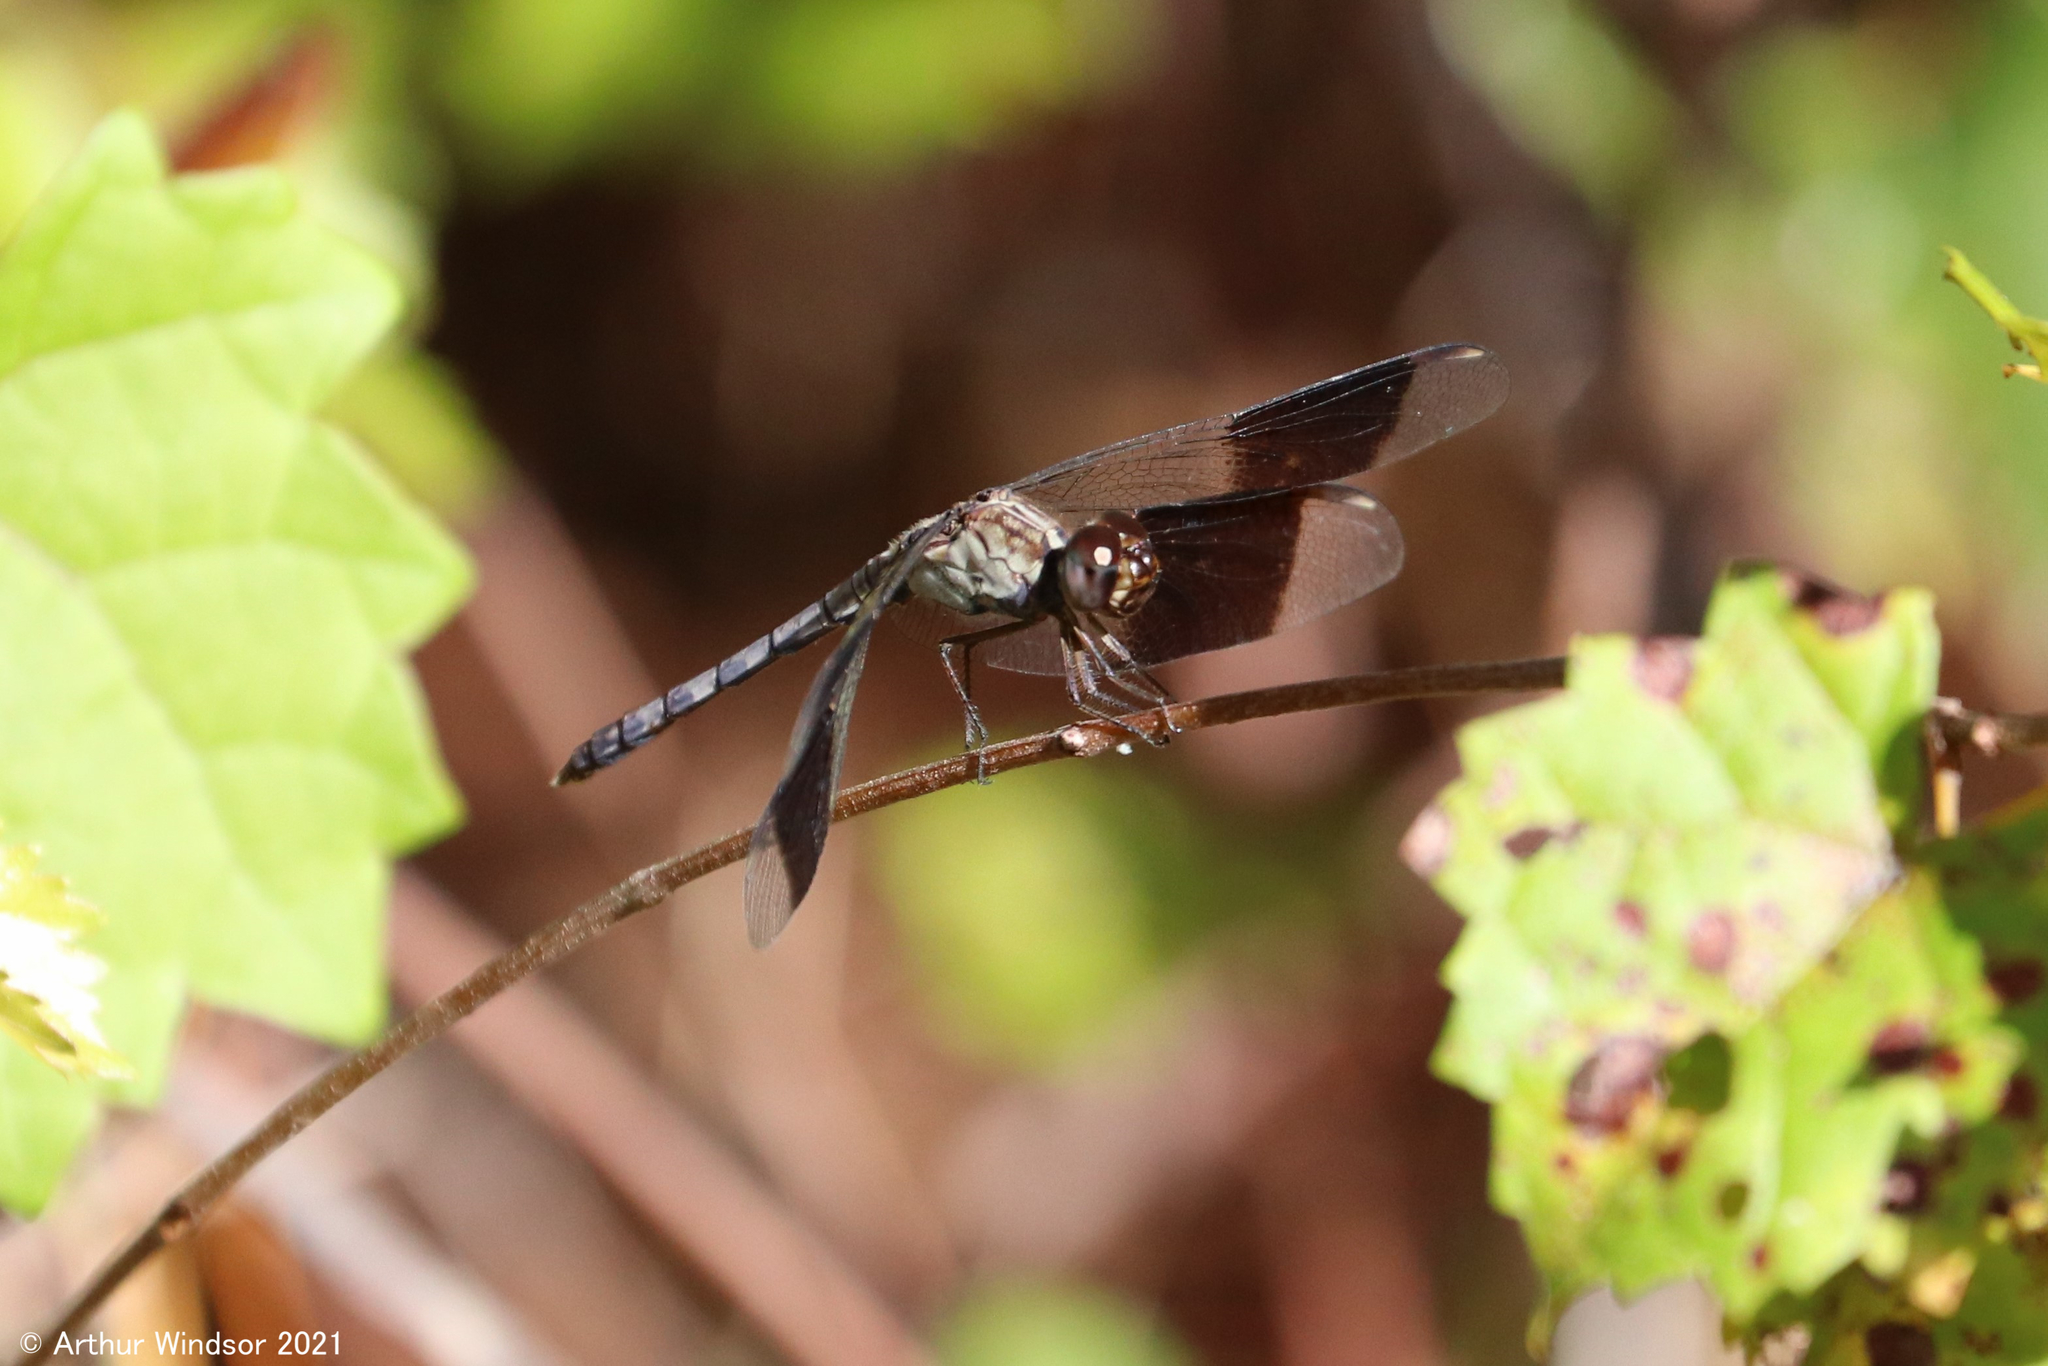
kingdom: Animalia
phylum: Arthropoda
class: Insecta
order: Odonata
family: Libellulidae
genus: Erythrodiplax
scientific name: Erythrodiplax umbrata
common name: Band-winged dragonlet
